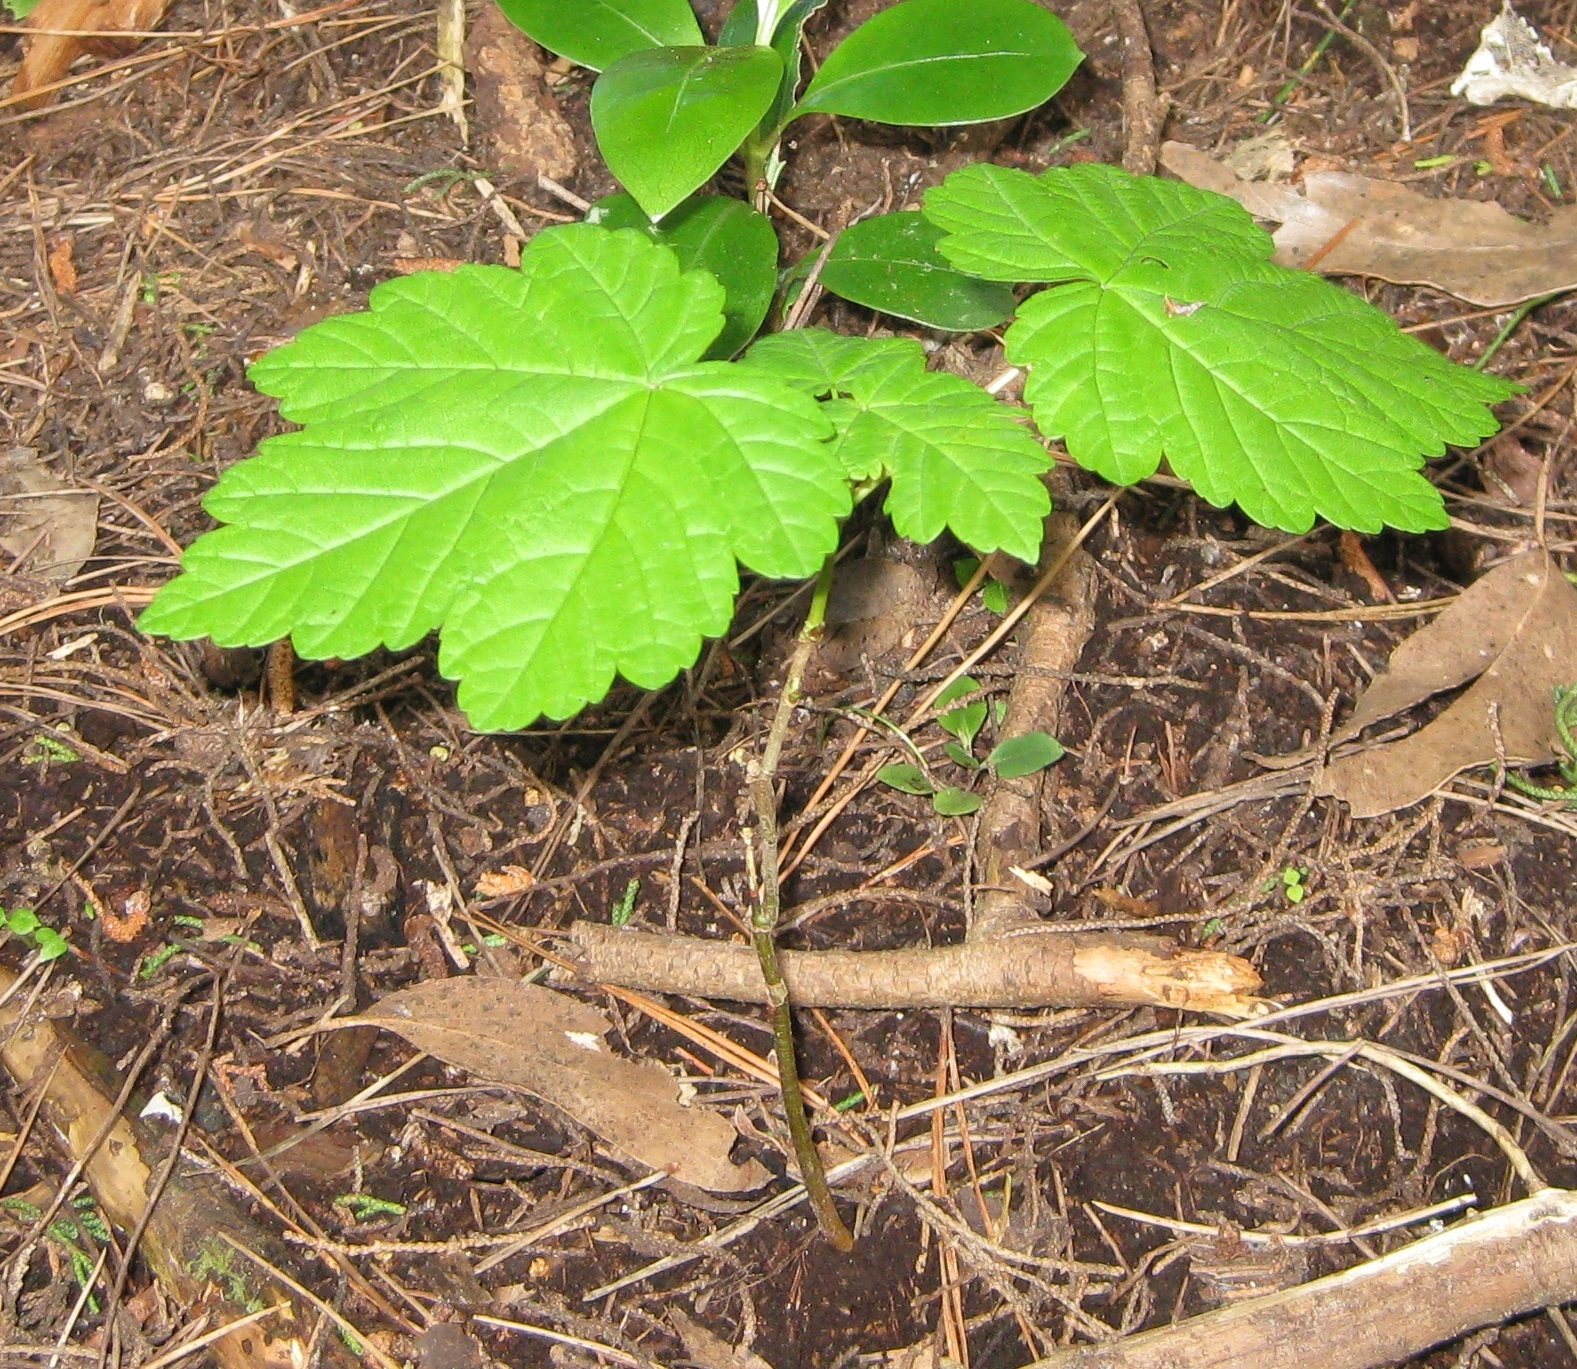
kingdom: Plantae
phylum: Tracheophyta
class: Magnoliopsida
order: Sapindales
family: Sapindaceae
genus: Acer
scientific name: Acer pseudoplatanus
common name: Sycamore
